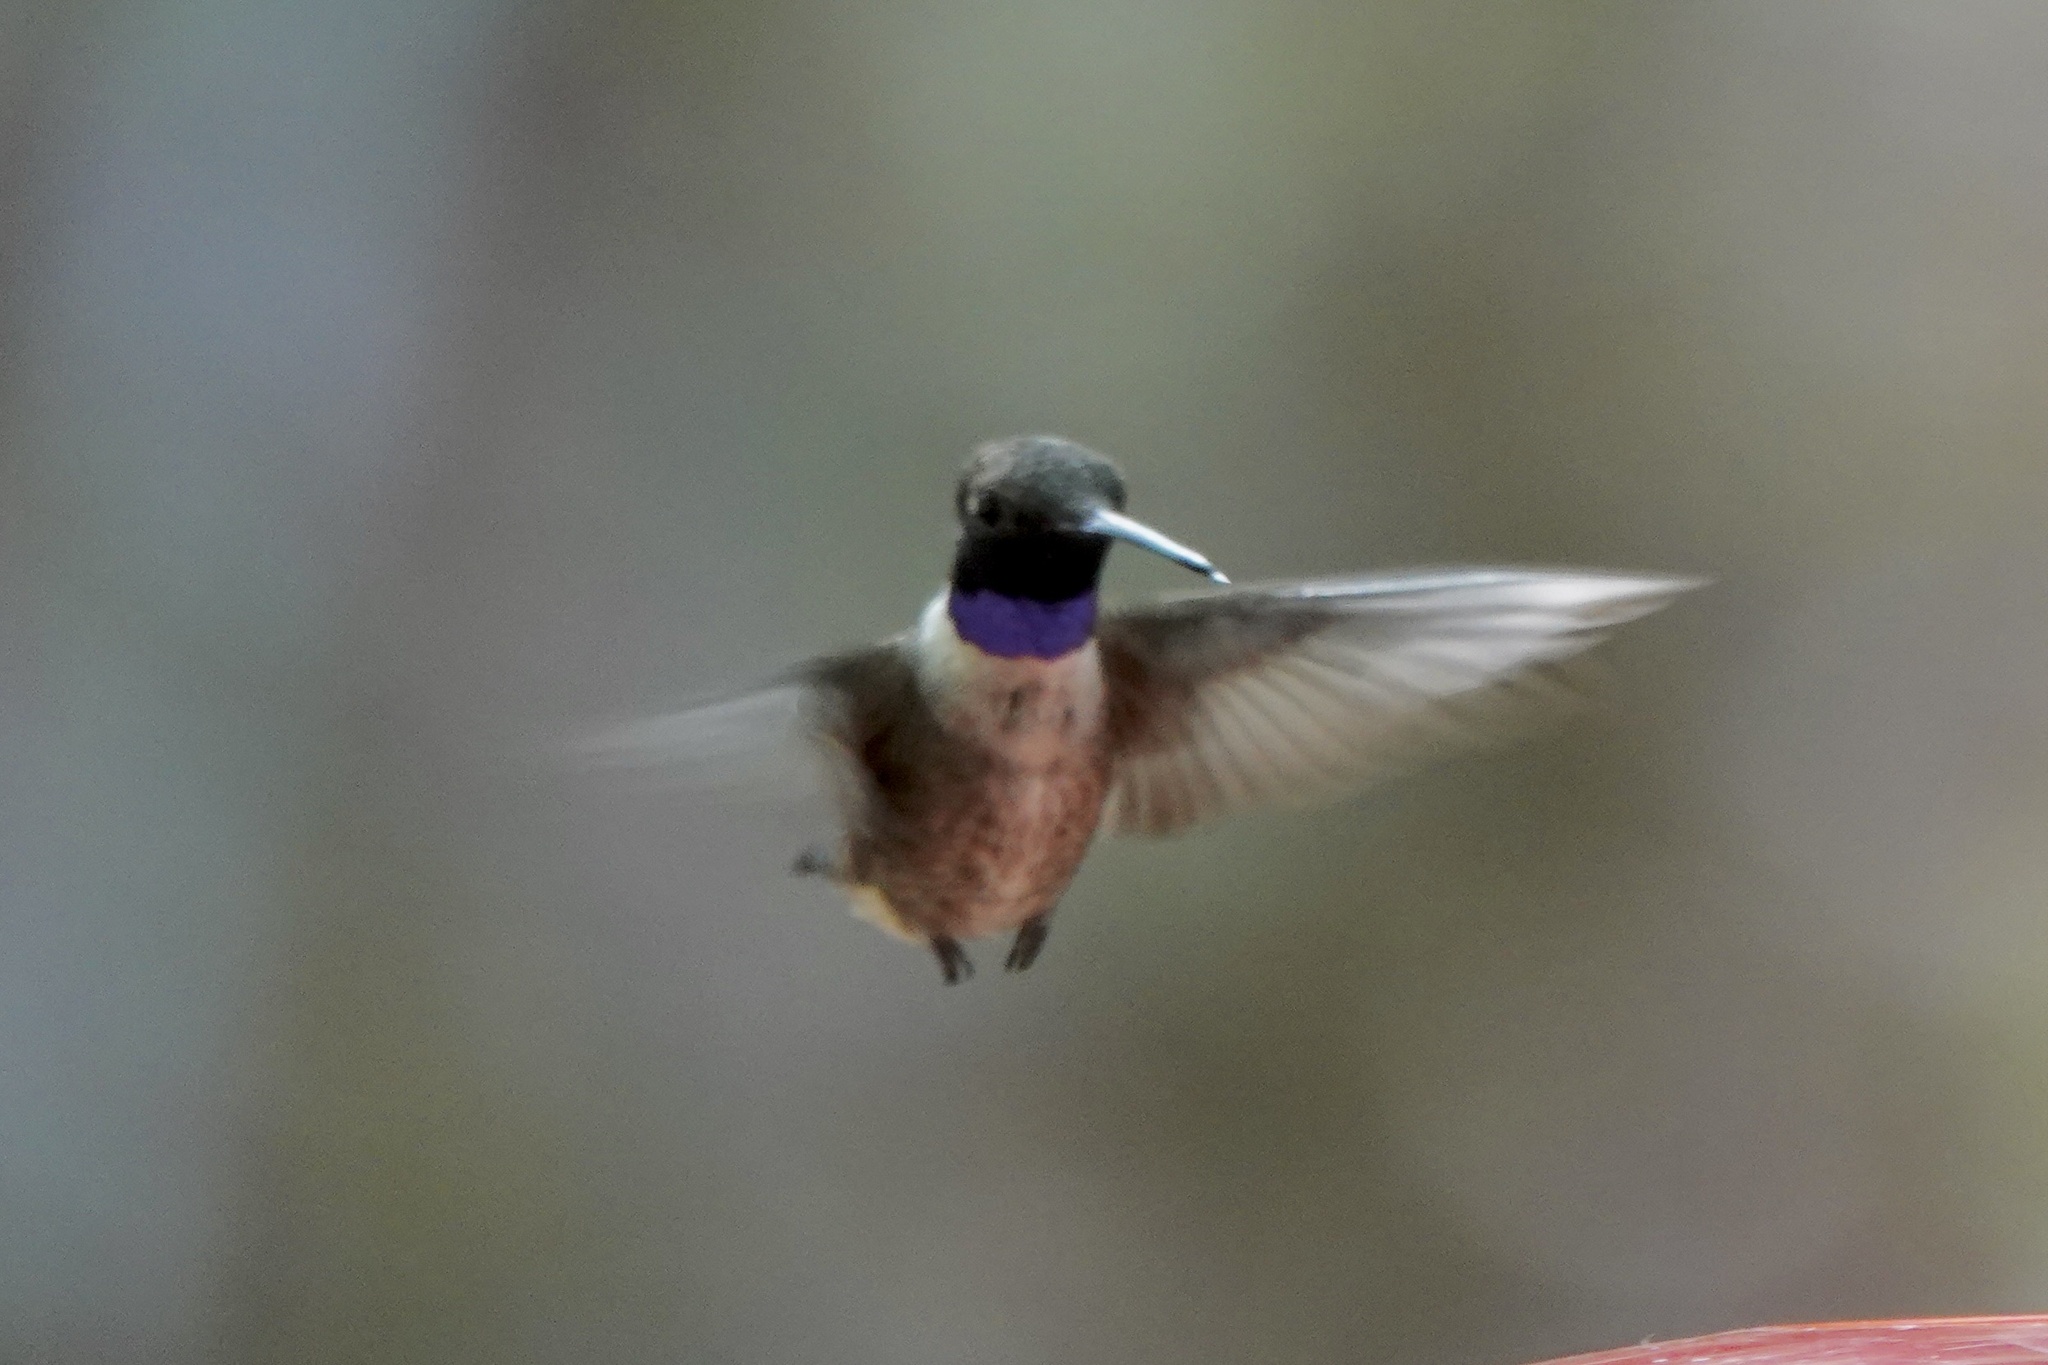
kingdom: Animalia
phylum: Chordata
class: Aves
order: Apodiformes
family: Trochilidae
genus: Archilochus
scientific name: Archilochus alexandri
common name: Black-chinned hummingbird
